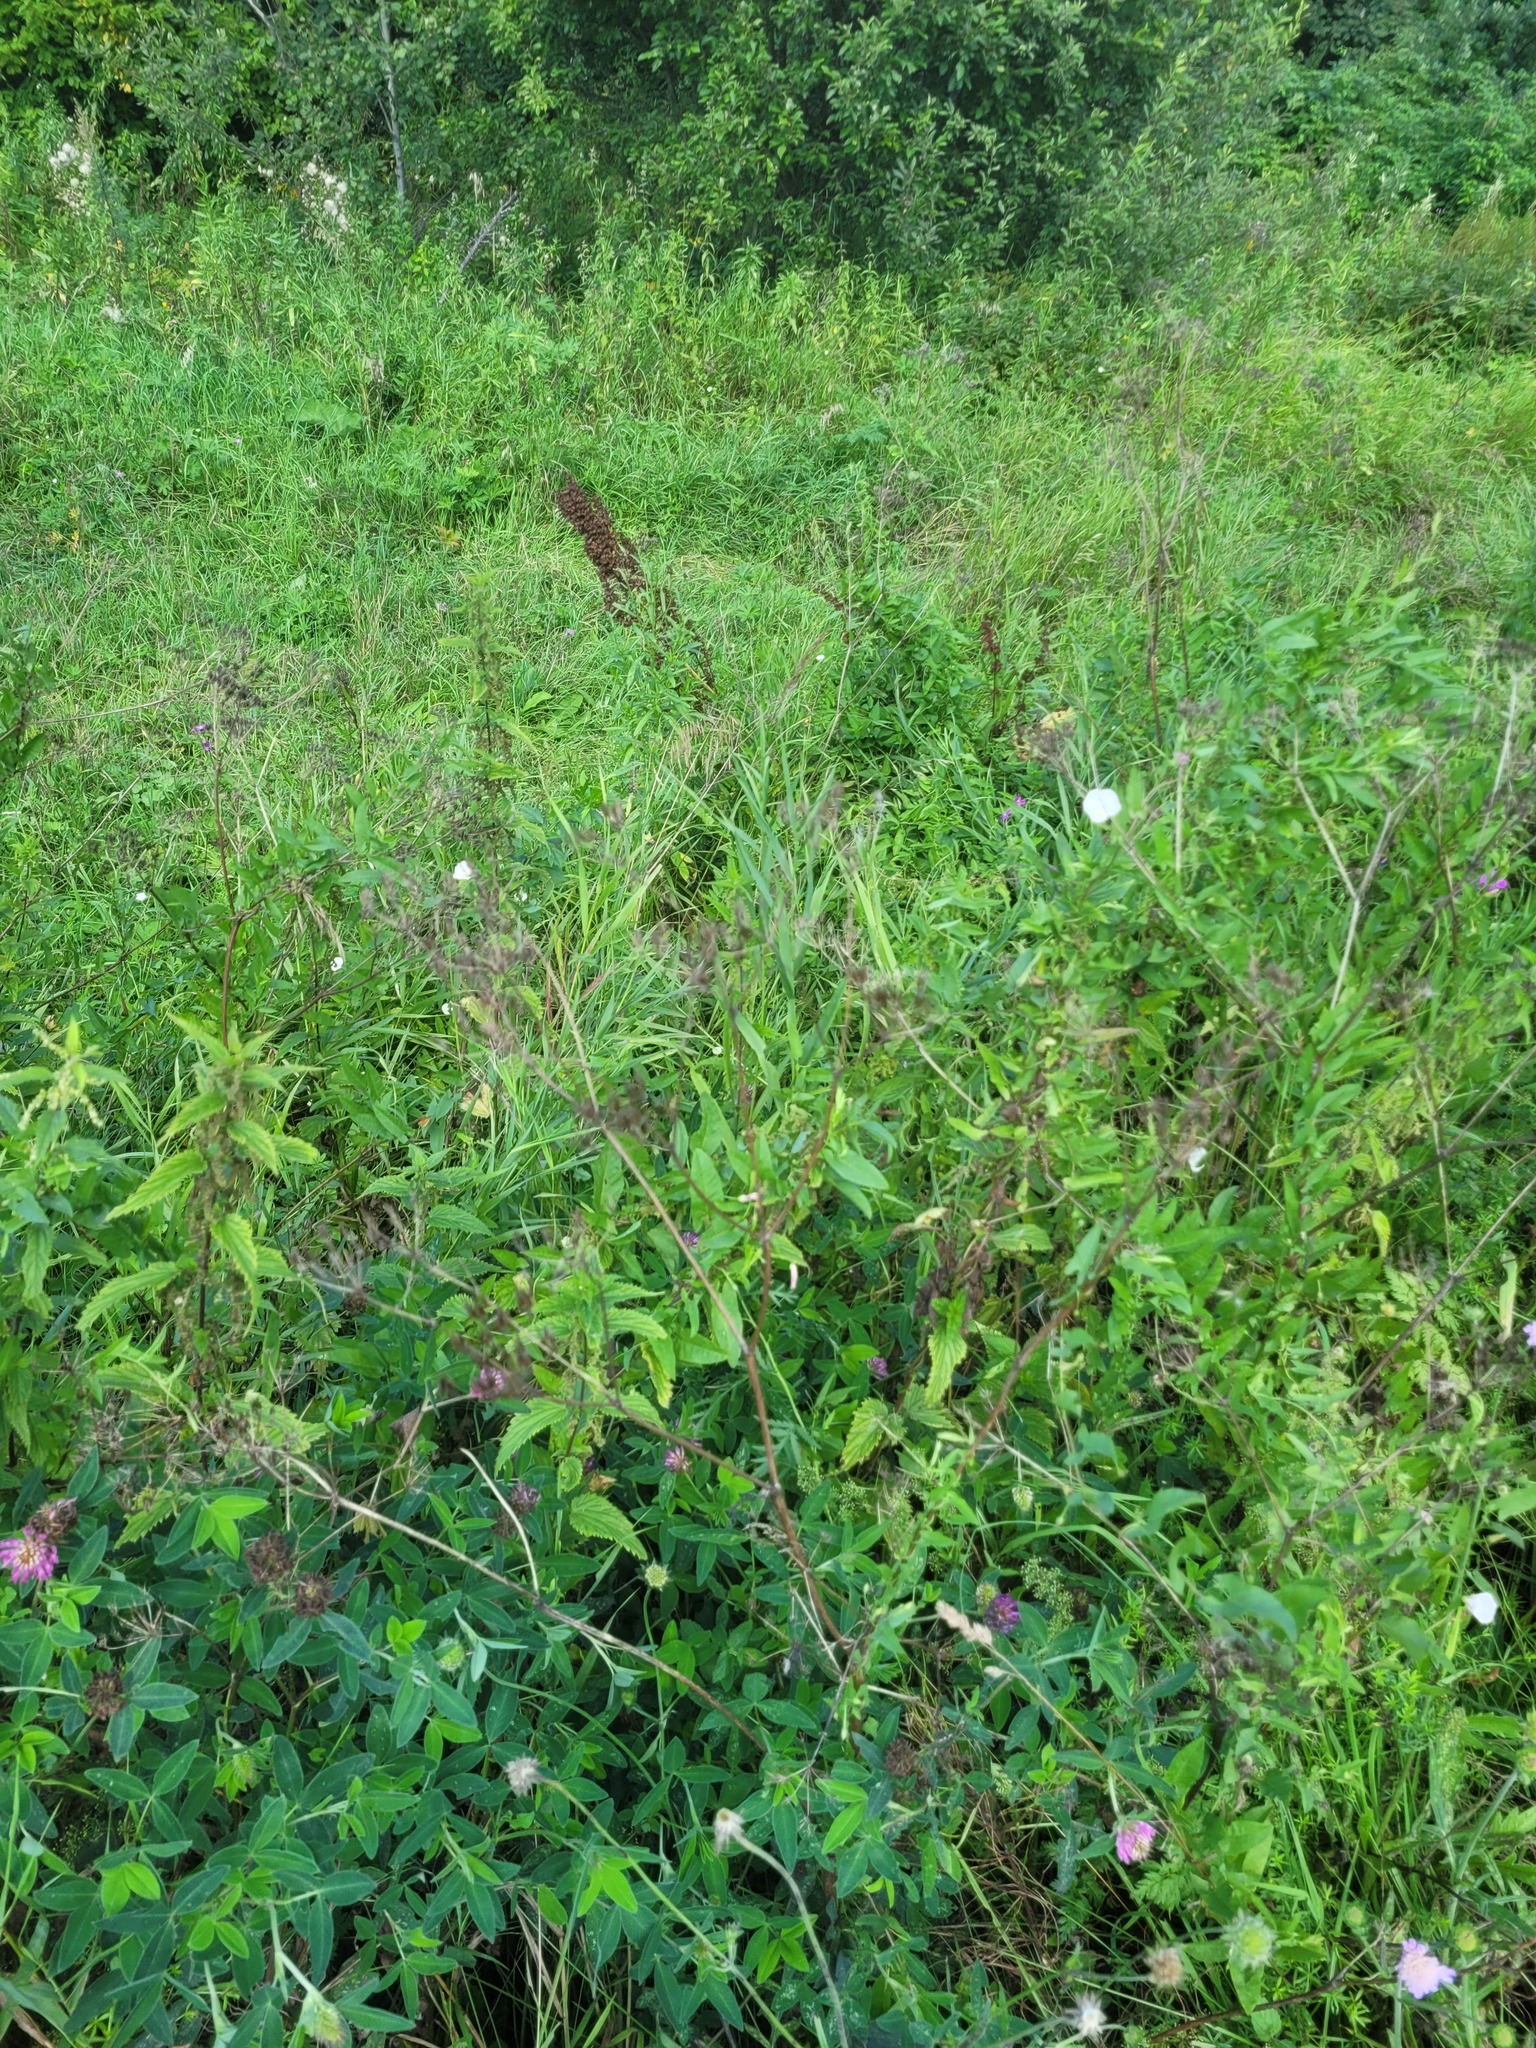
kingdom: Plantae
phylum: Tracheophyta
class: Magnoliopsida
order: Apiales
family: Apiaceae
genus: Anthriscus
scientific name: Anthriscus sylvestris
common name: Cow parsley
